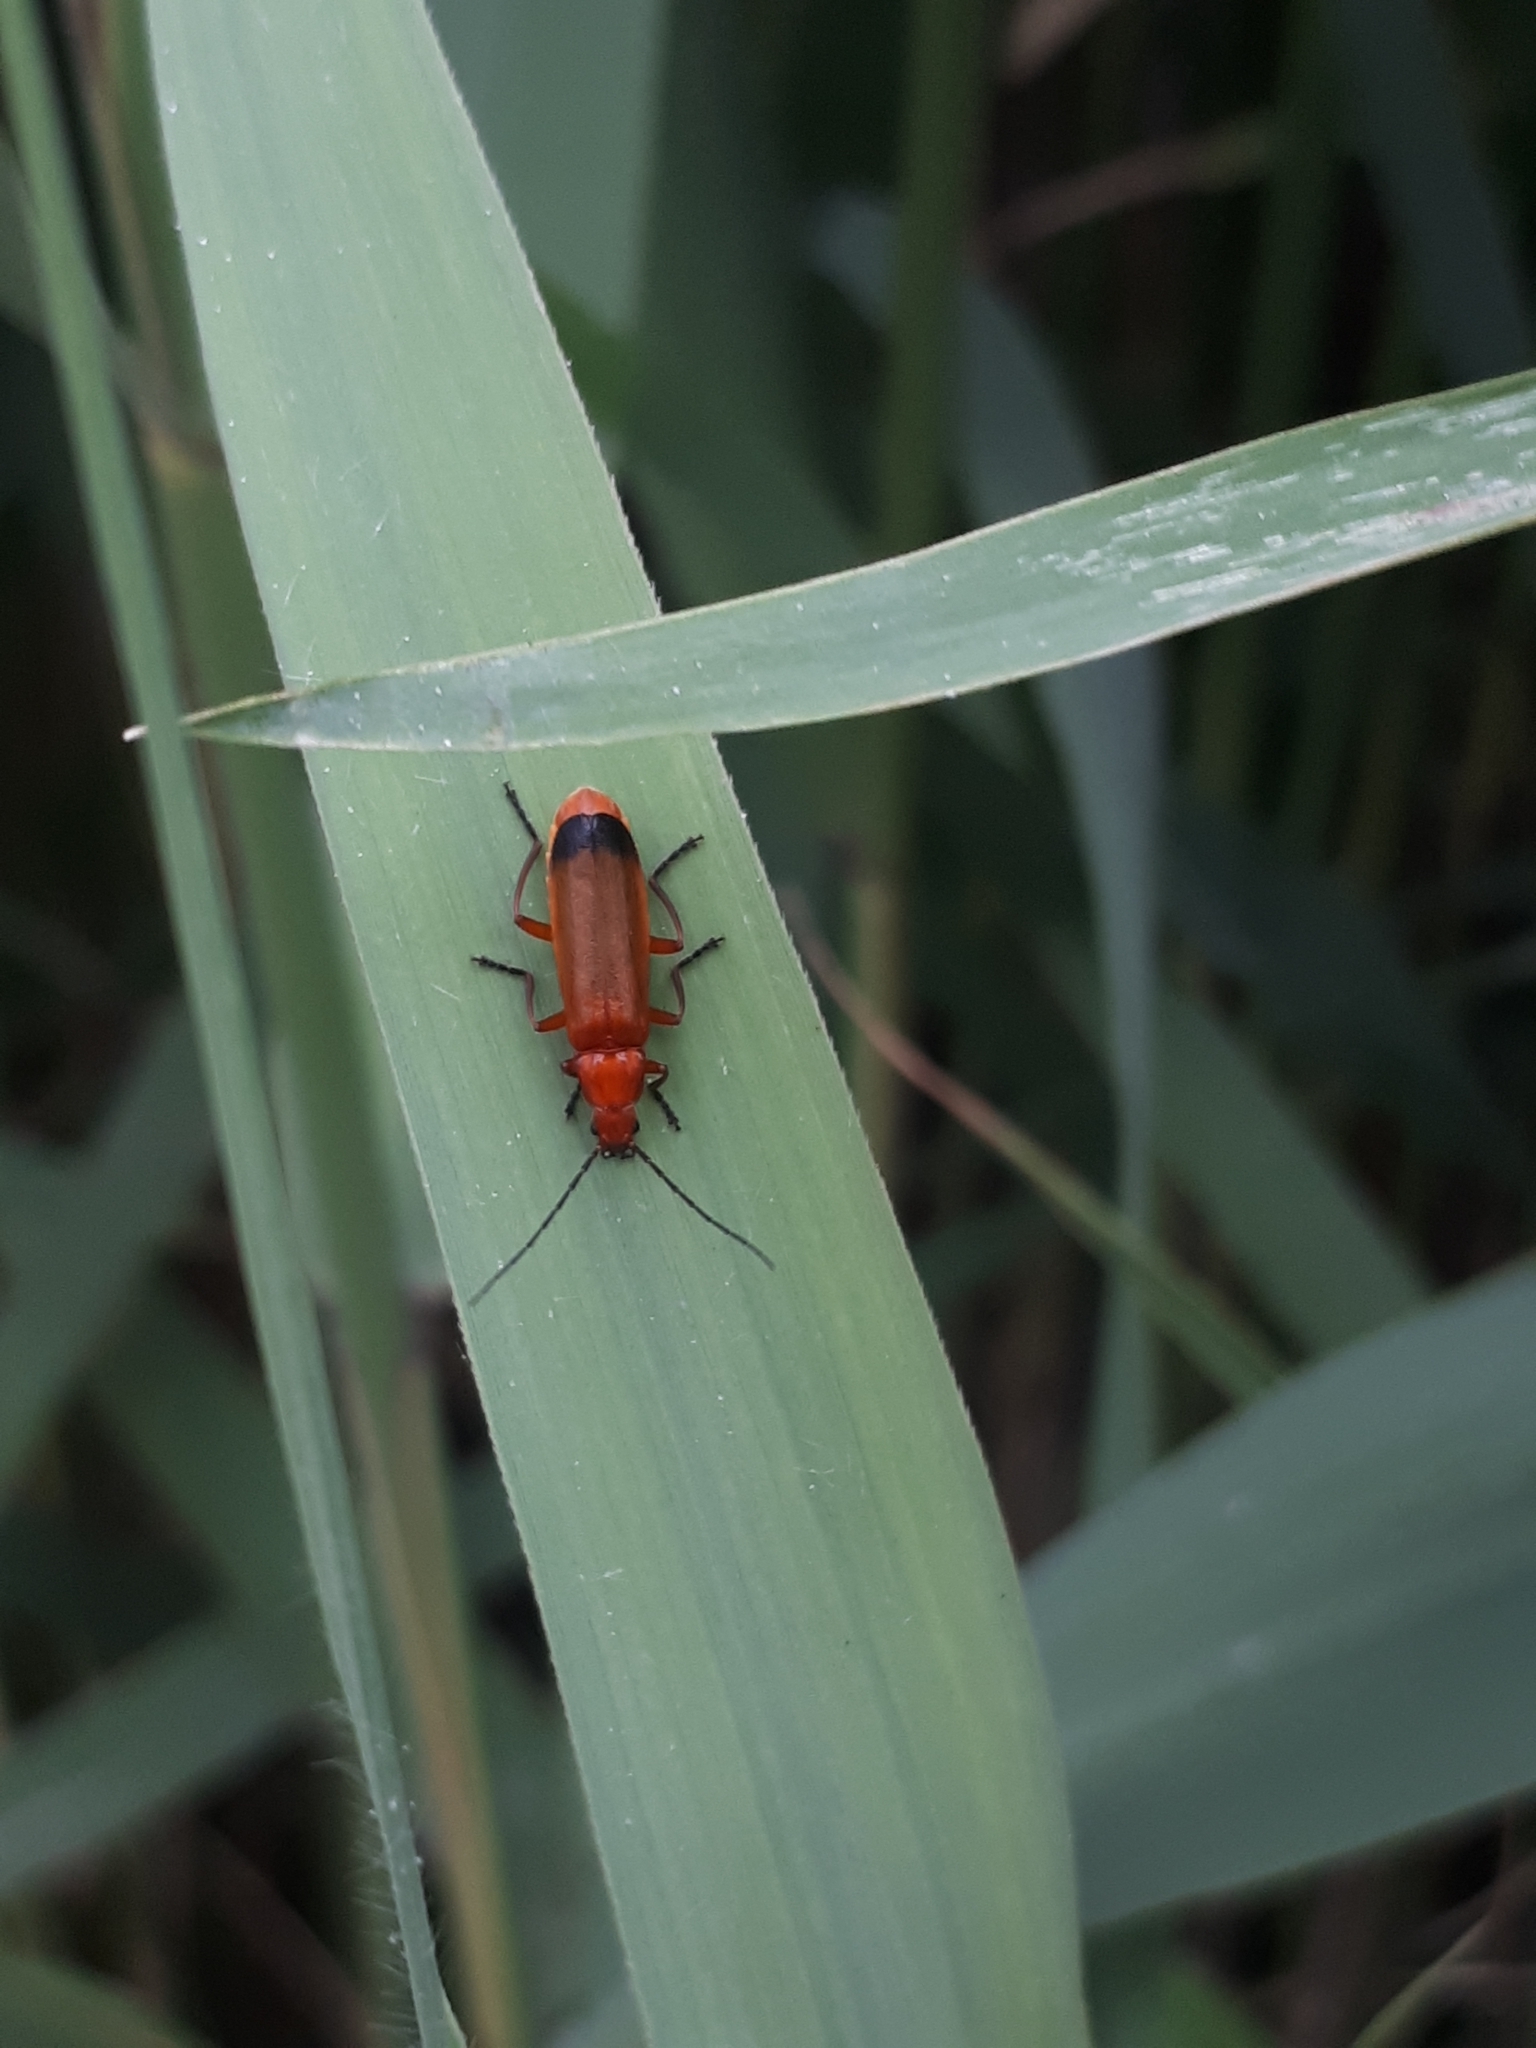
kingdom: Animalia
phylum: Arthropoda
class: Insecta
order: Coleoptera
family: Cantharidae
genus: Rhagonycha
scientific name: Rhagonycha fulva
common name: Common red soldier beetle
